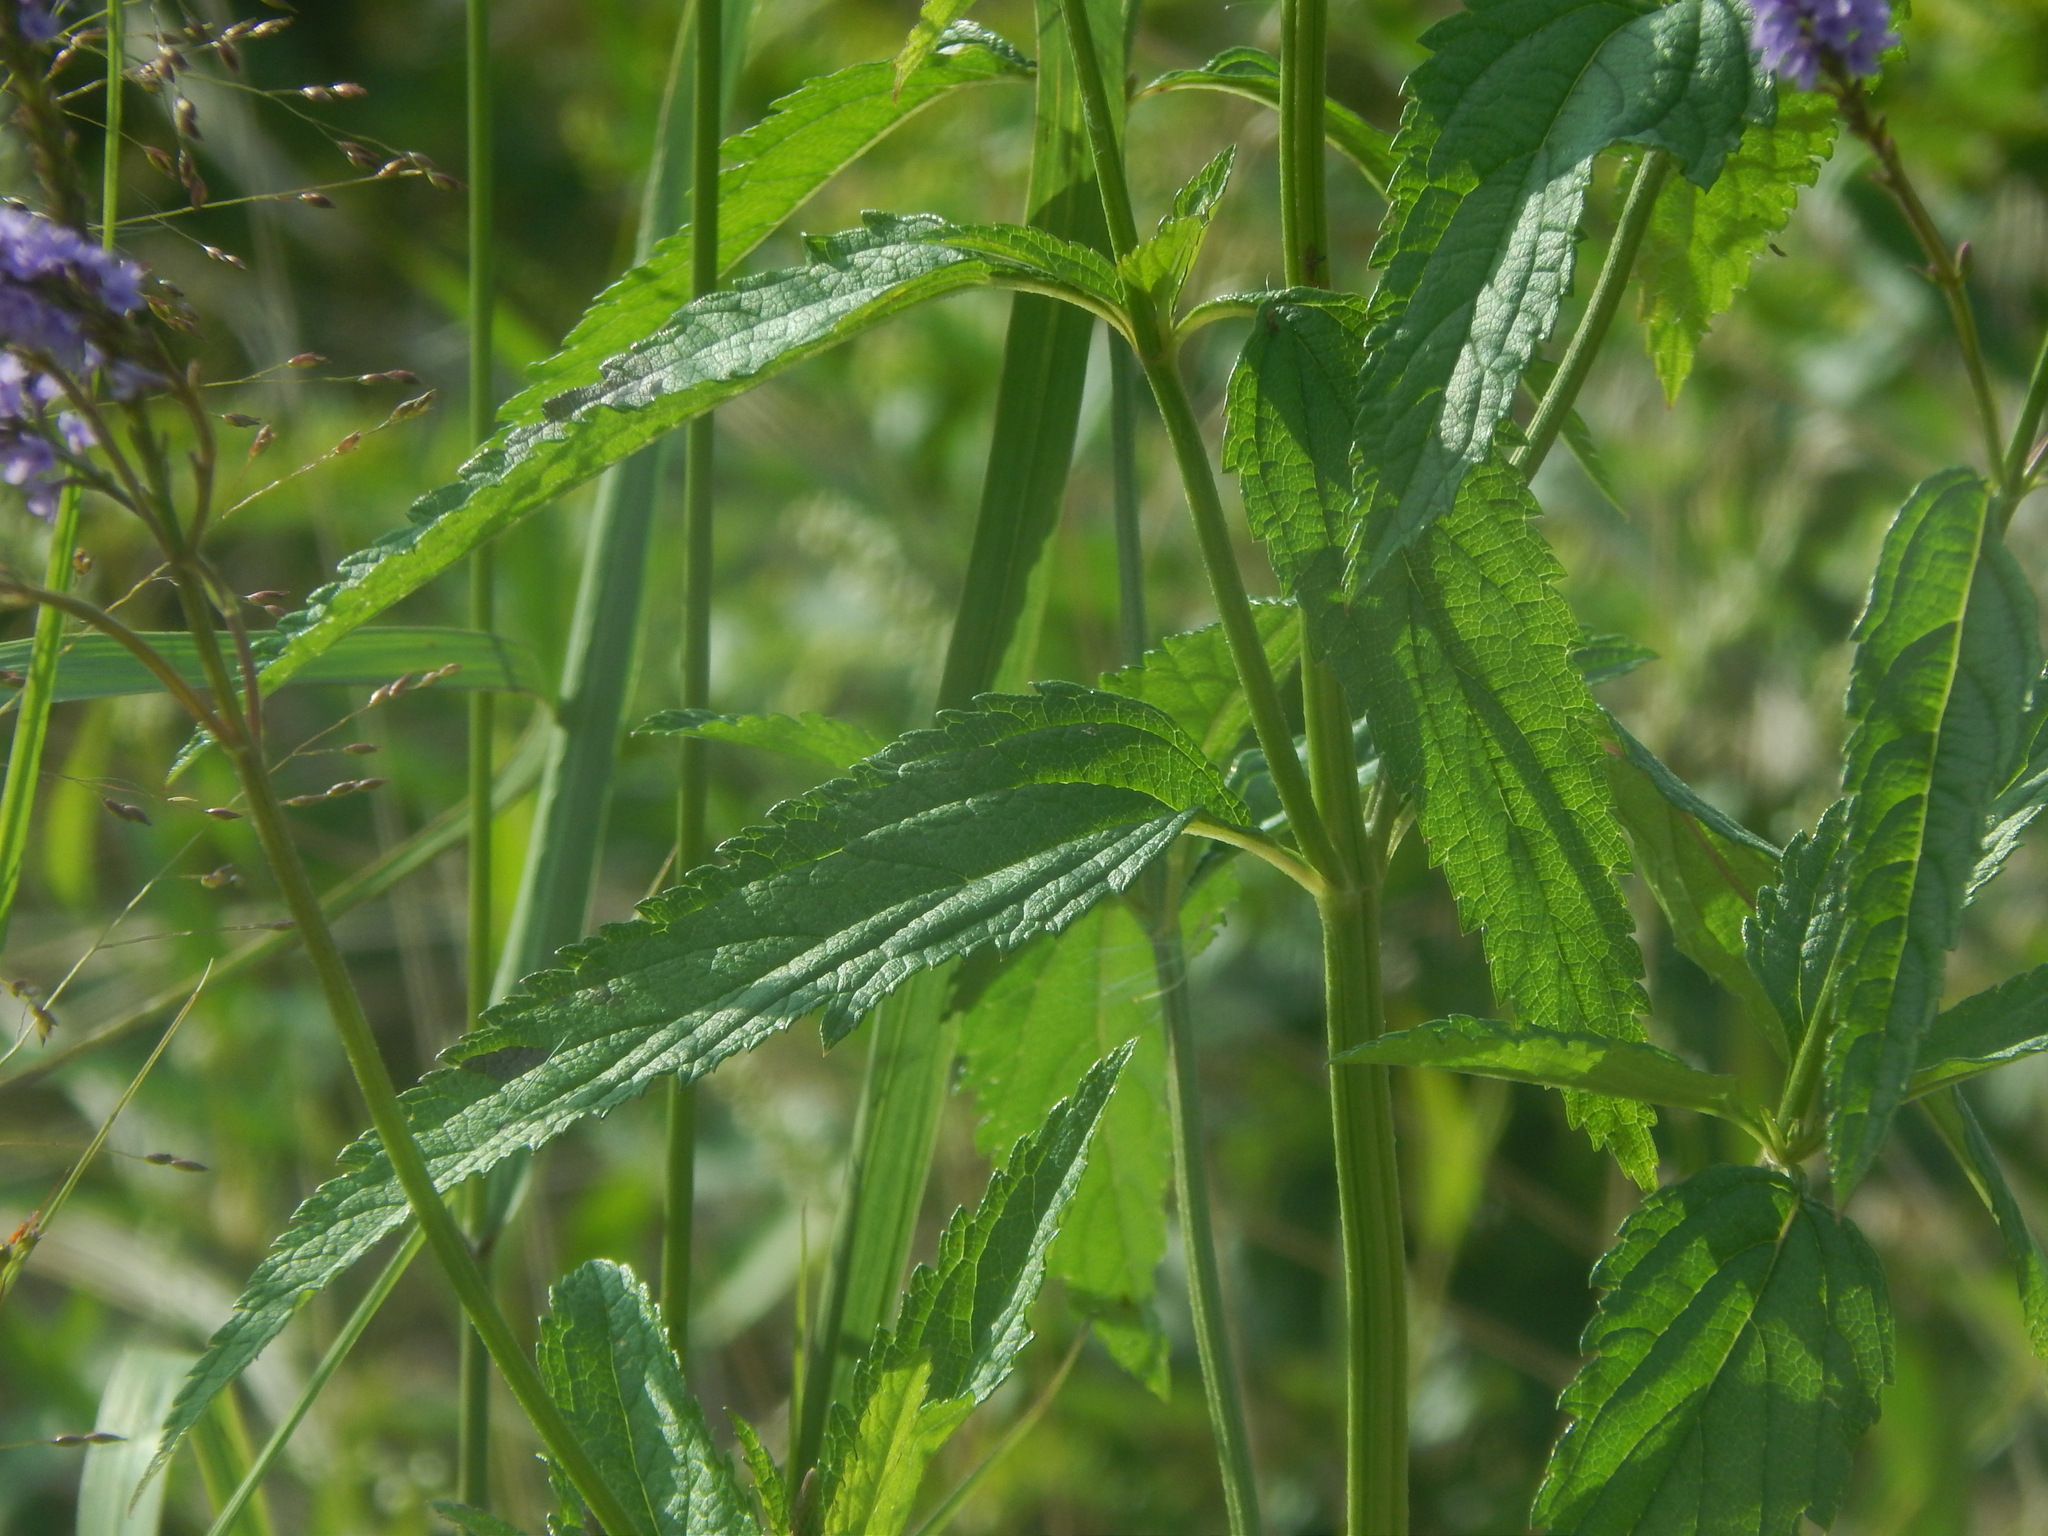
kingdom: Plantae
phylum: Tracheophyta
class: Magnoliopsida
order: Lamiales
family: Verbenaceae
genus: Verbena
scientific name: Verbena hastata
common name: American blue vervain
